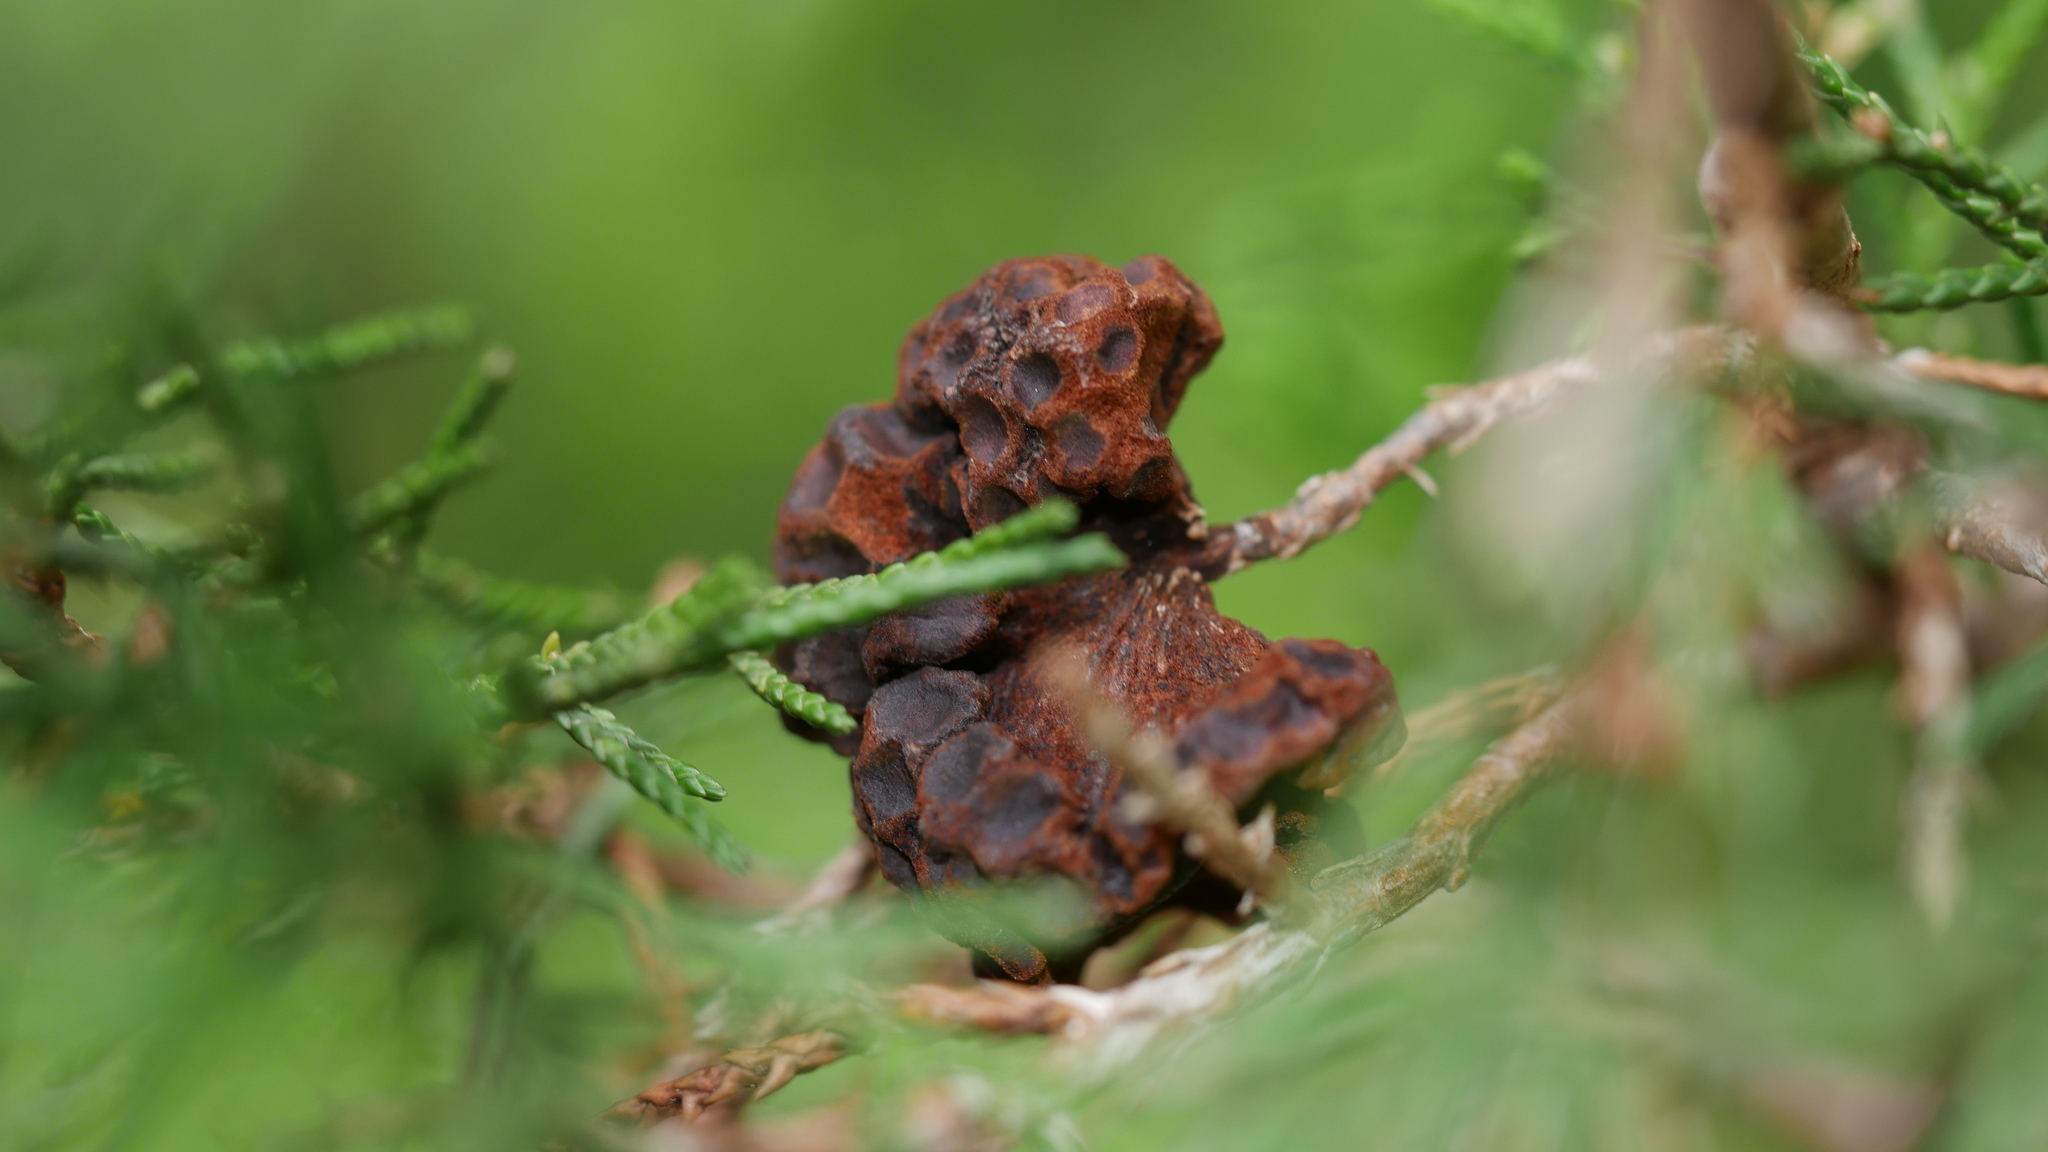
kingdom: Fungi
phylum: Basidiomycota
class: Pucciniomycetes
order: Pucciniales
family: Gymnosporangiaceae
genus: Gymnosporangium
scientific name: Gymnosporangium juniperi-virginianae
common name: Juniper-apple rust
